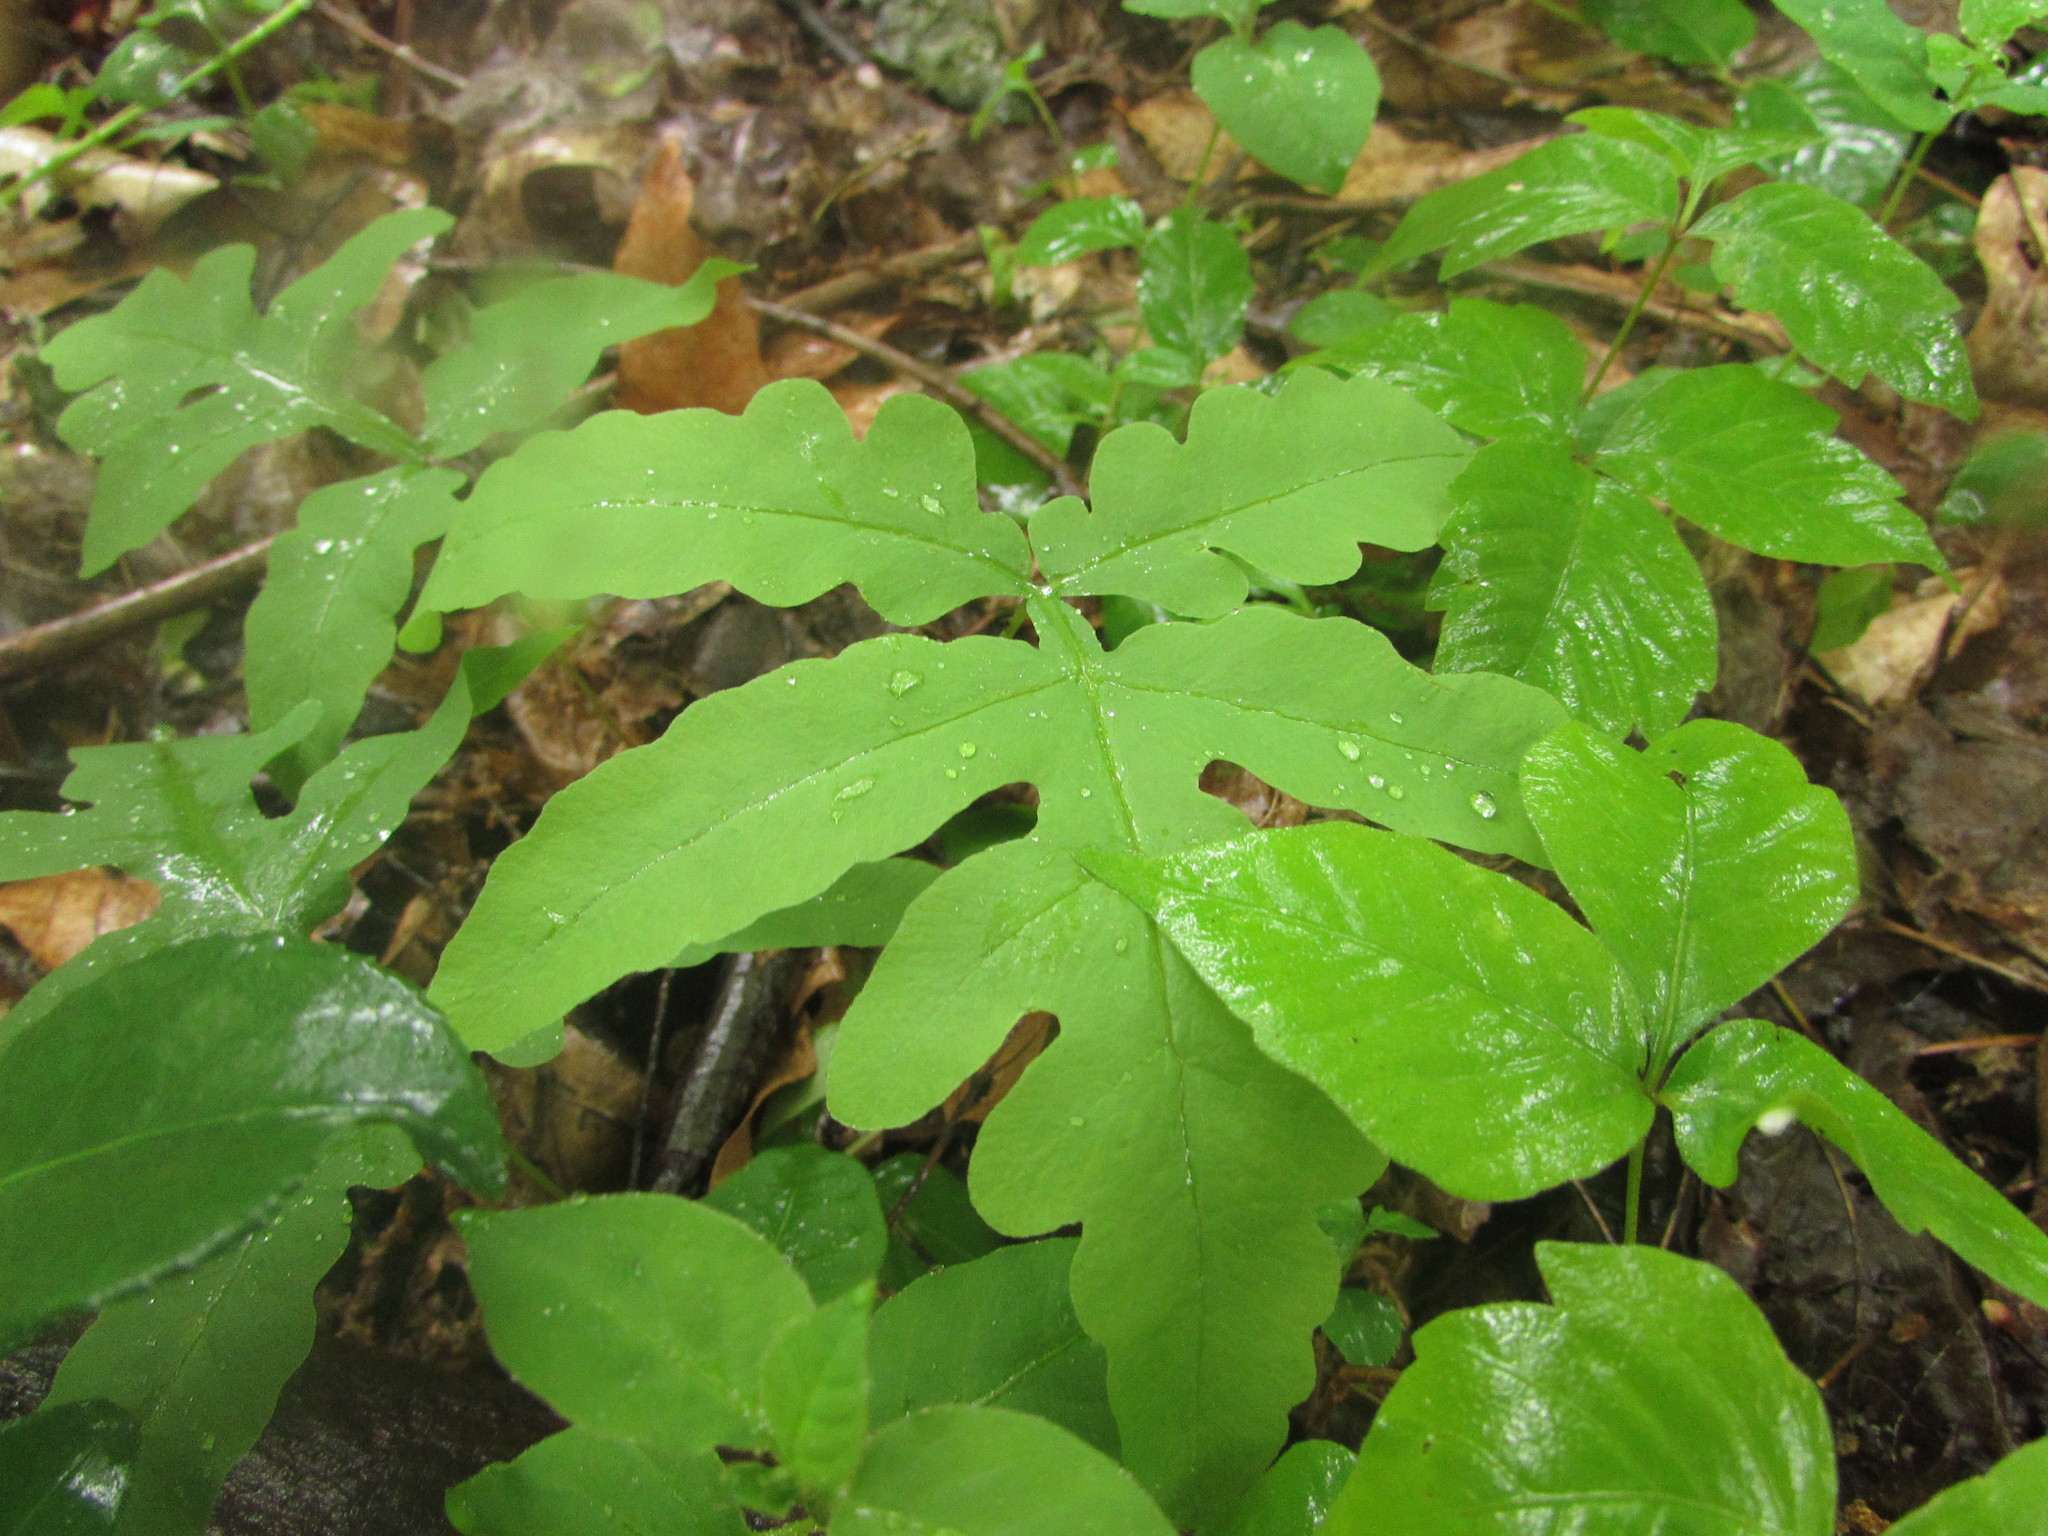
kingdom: Plantae
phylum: Tracheophyta
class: Polypodiopsida
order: Polypodiales
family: Onocleaceae
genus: Onoclea
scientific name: Onoclea sensibilis
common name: Sensitive fern
